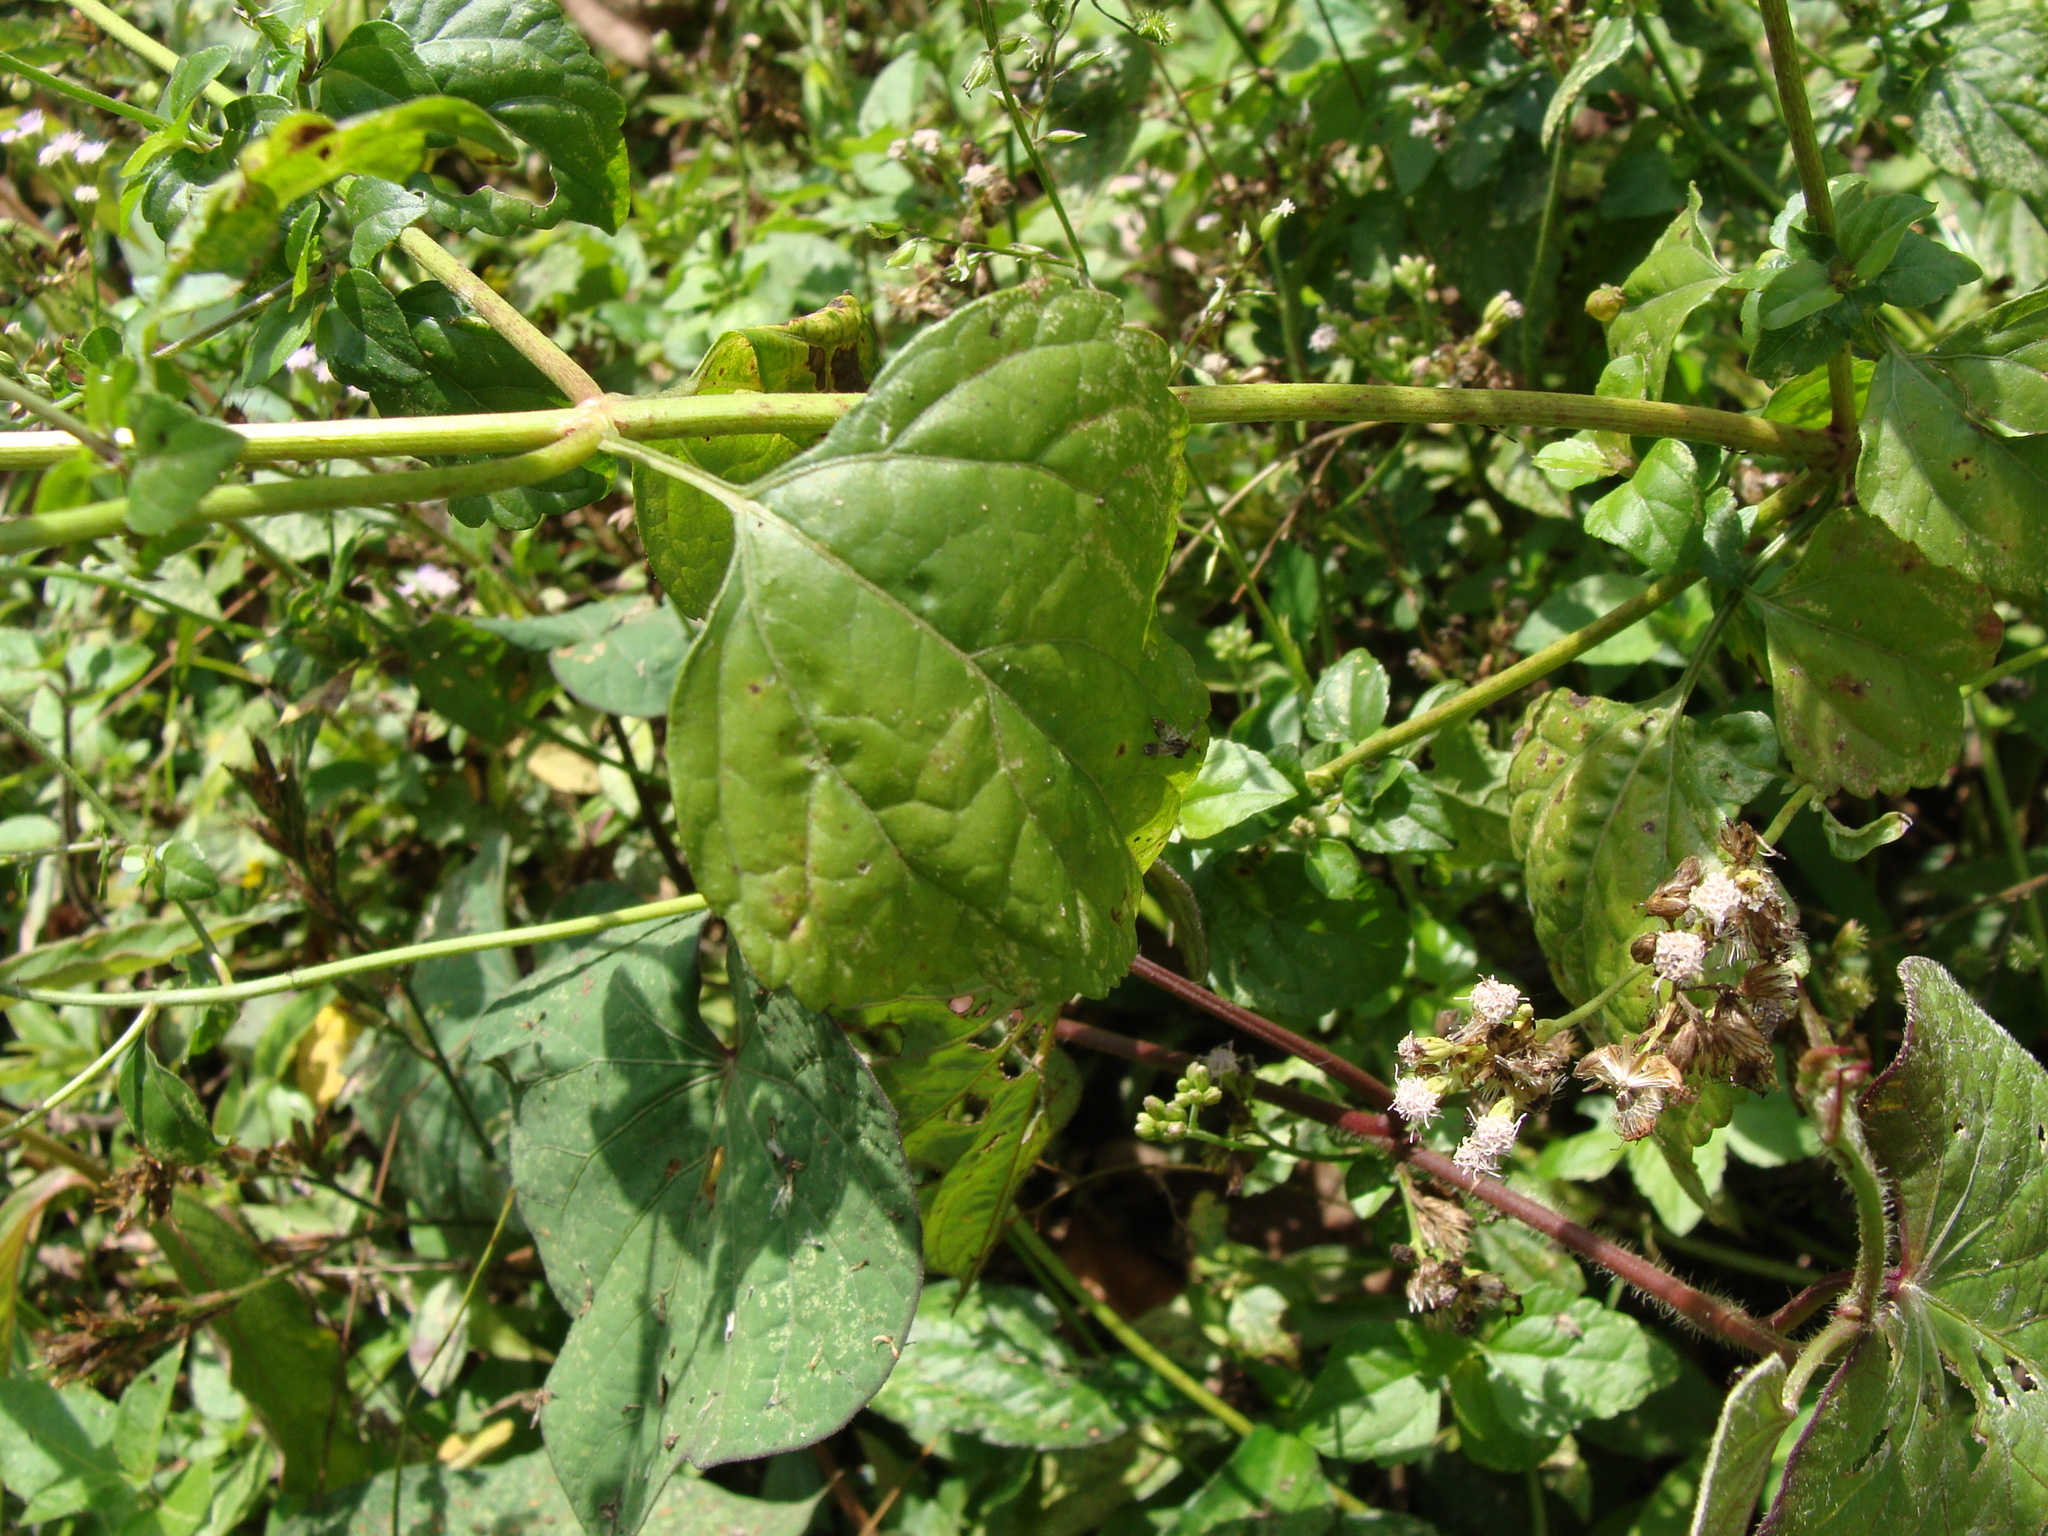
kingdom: Plantae
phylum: Tracheophyta
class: Magnoliopsida
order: Asterales
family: Asteraceae
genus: Fleischmannia
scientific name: Fleischmannia matudae
